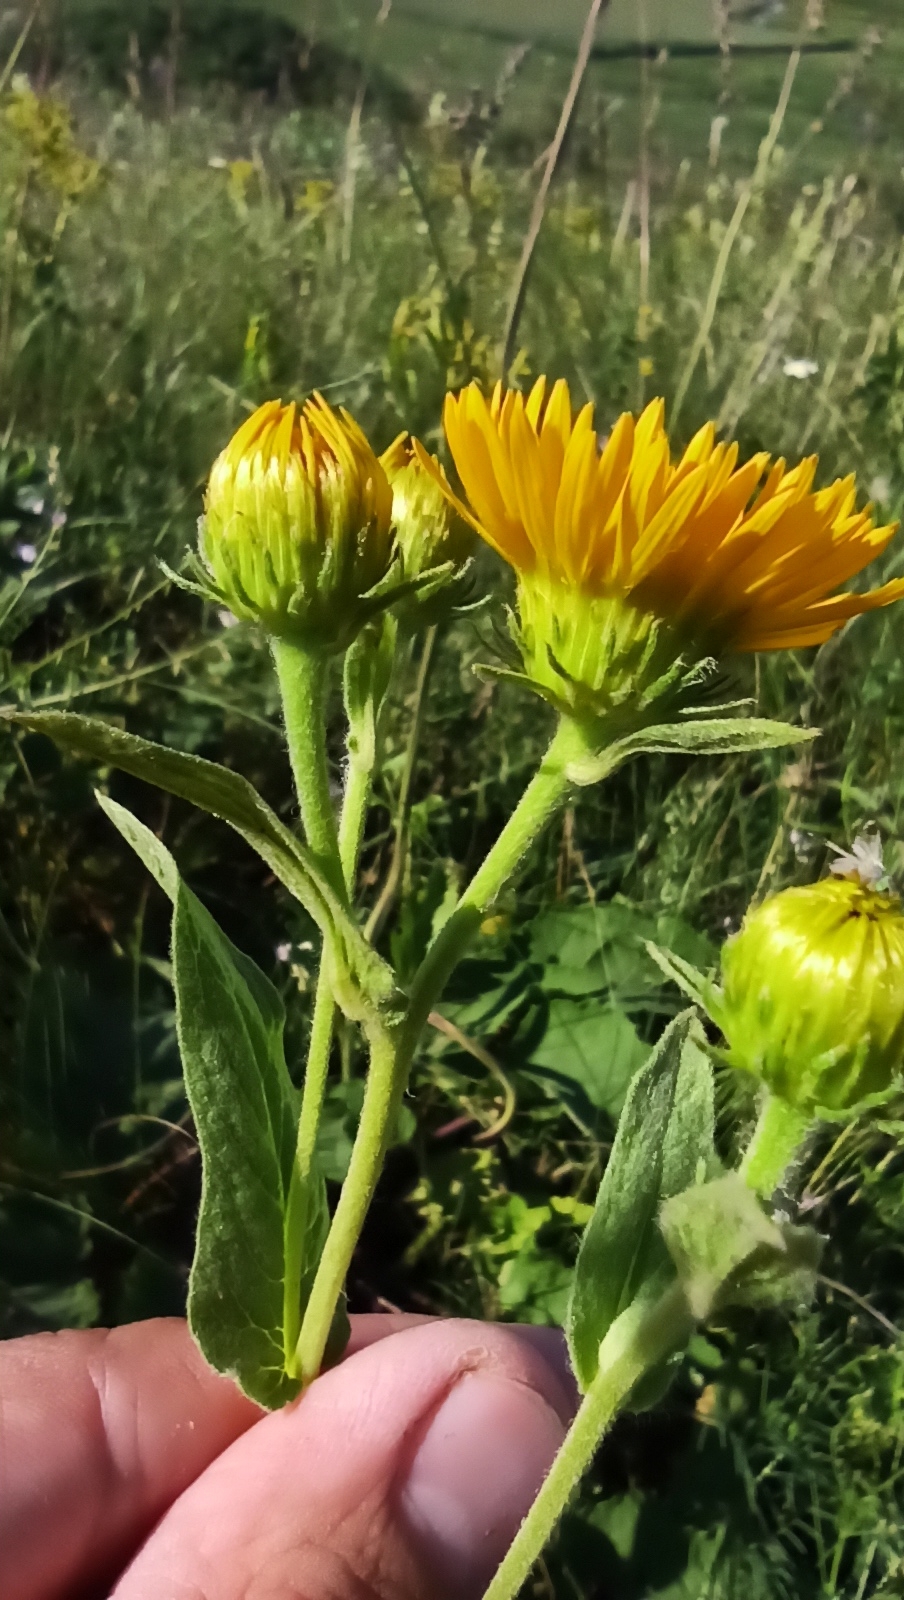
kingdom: Plantae
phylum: Tracheophyta
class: Magnoliopsida
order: Asterales
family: Asteraceae
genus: Pentanema
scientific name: Pentanema oculus-christi
